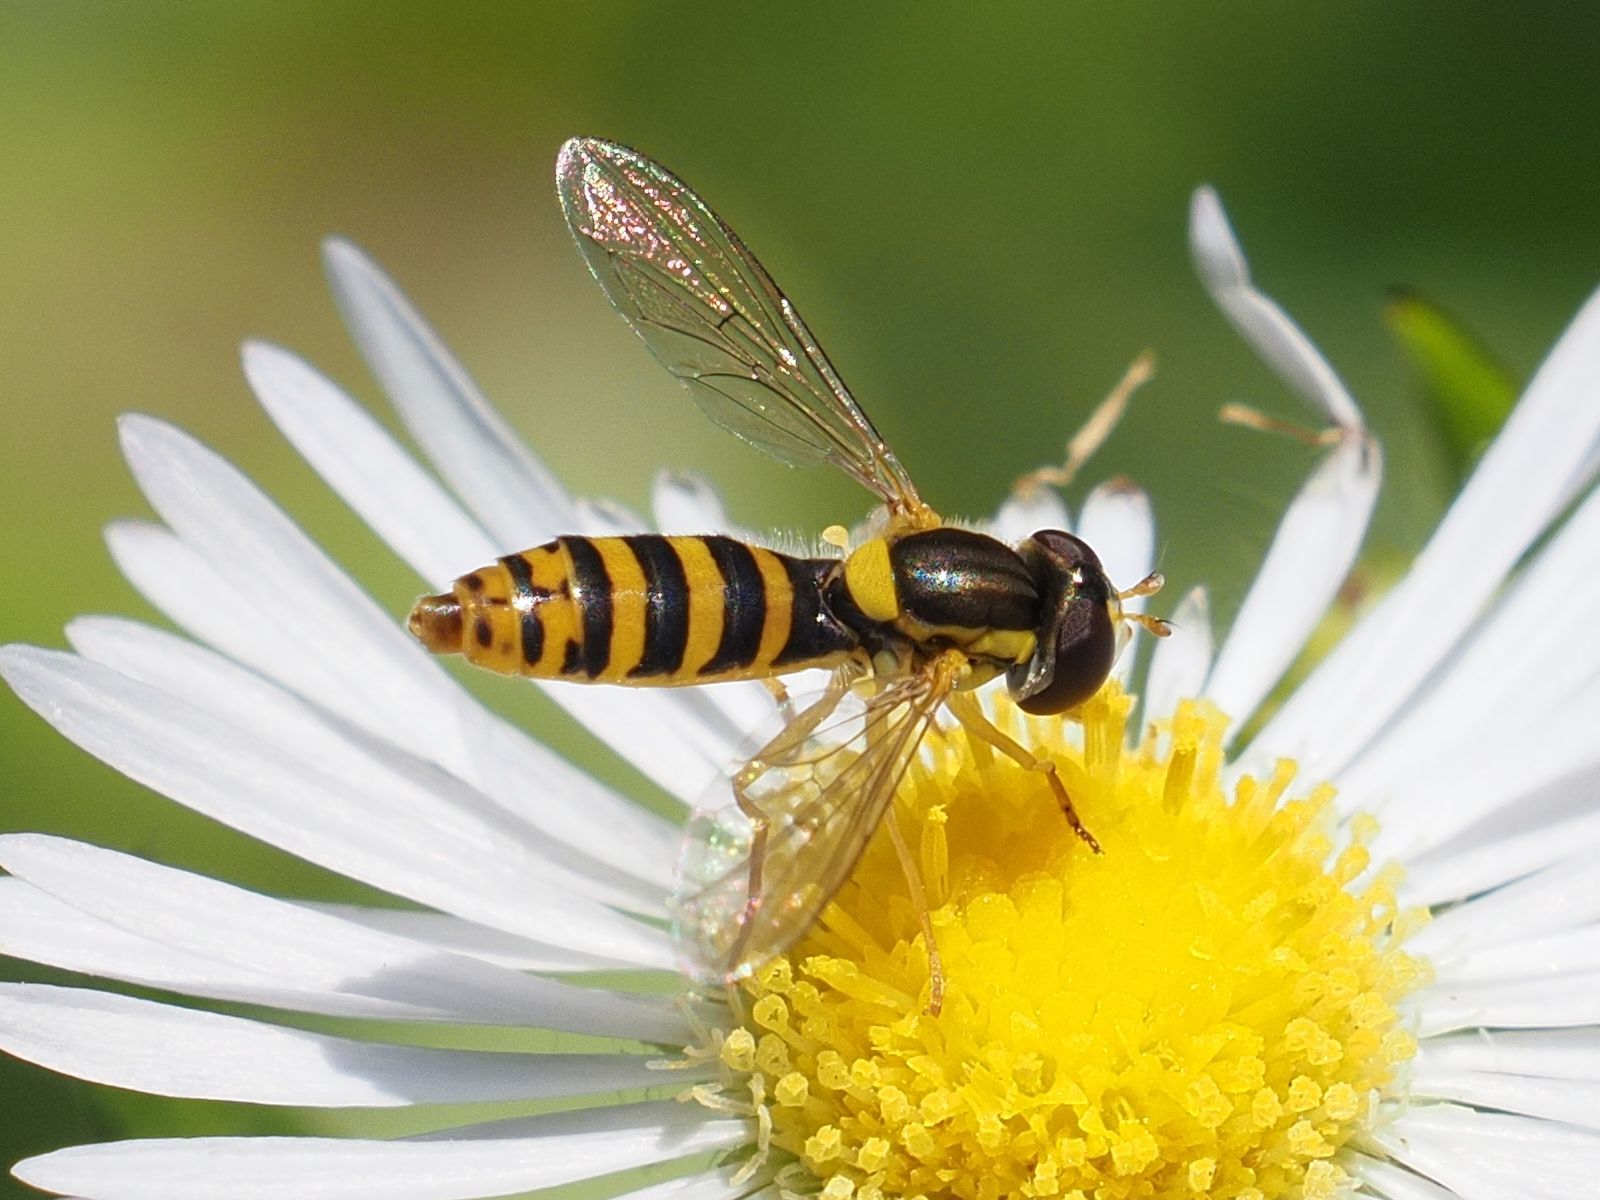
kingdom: Animalia
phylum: Arthropoda
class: Insecta
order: Diptera
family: Syrphidae
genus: Sphaerophoria
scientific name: Sphaerophoria
